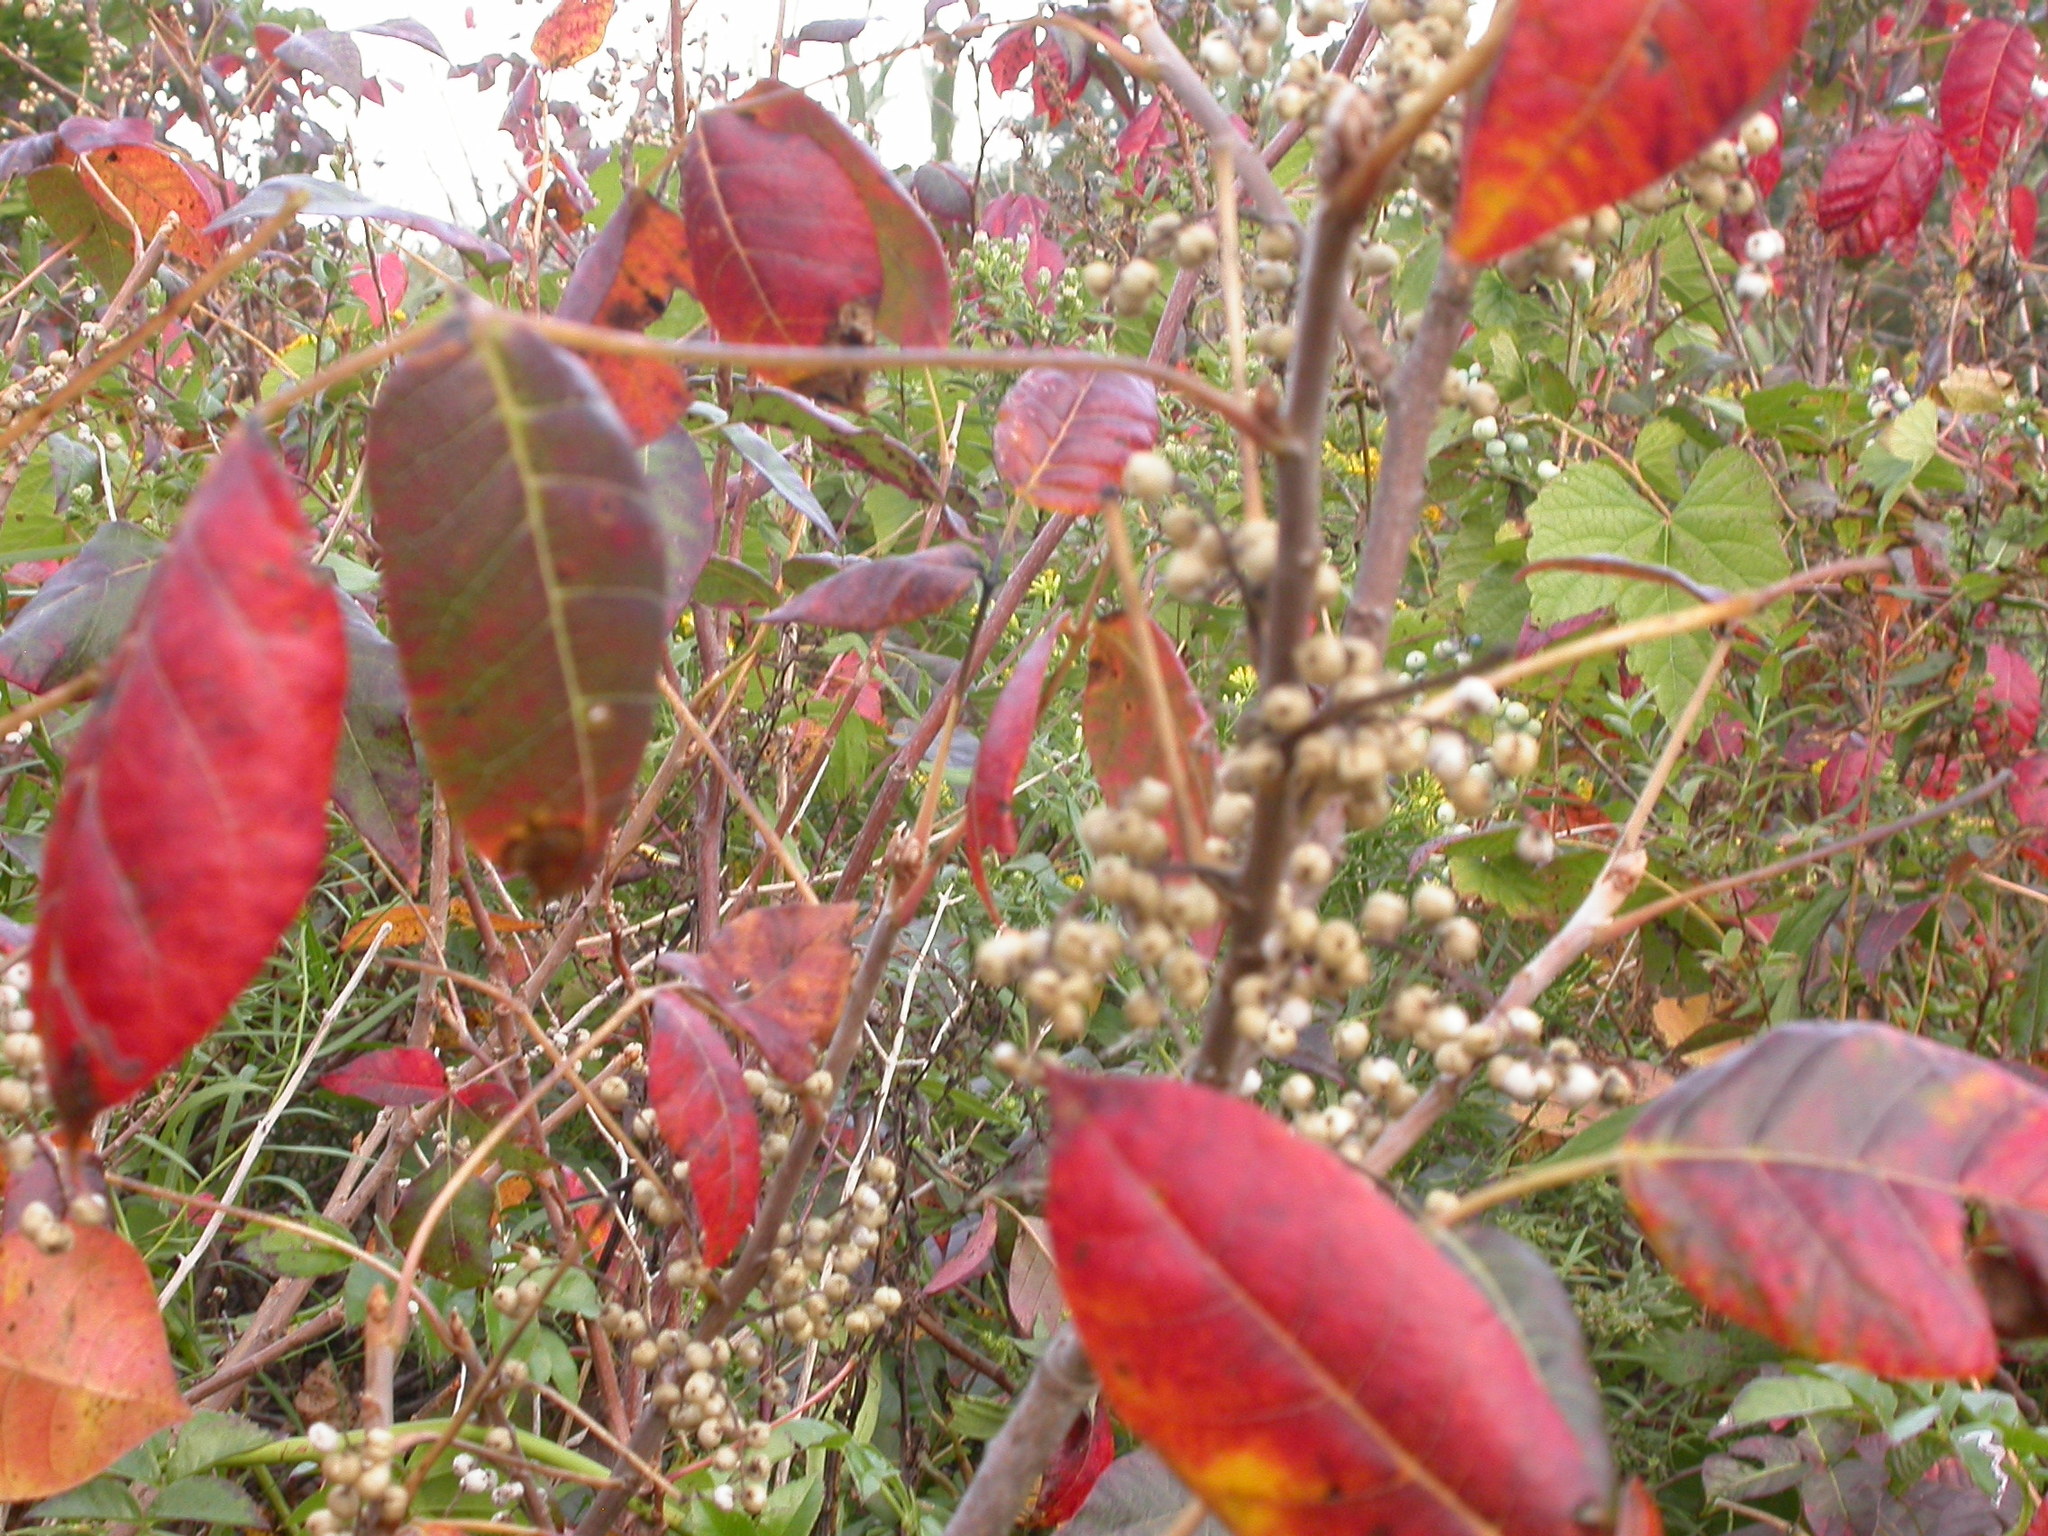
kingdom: Plantae
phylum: Tracheophyta
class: Magnoliopsida
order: Sapindales
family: Anacardiaceae
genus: Toxicodendron
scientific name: Toxicodendron radicans
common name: Poison ivy
